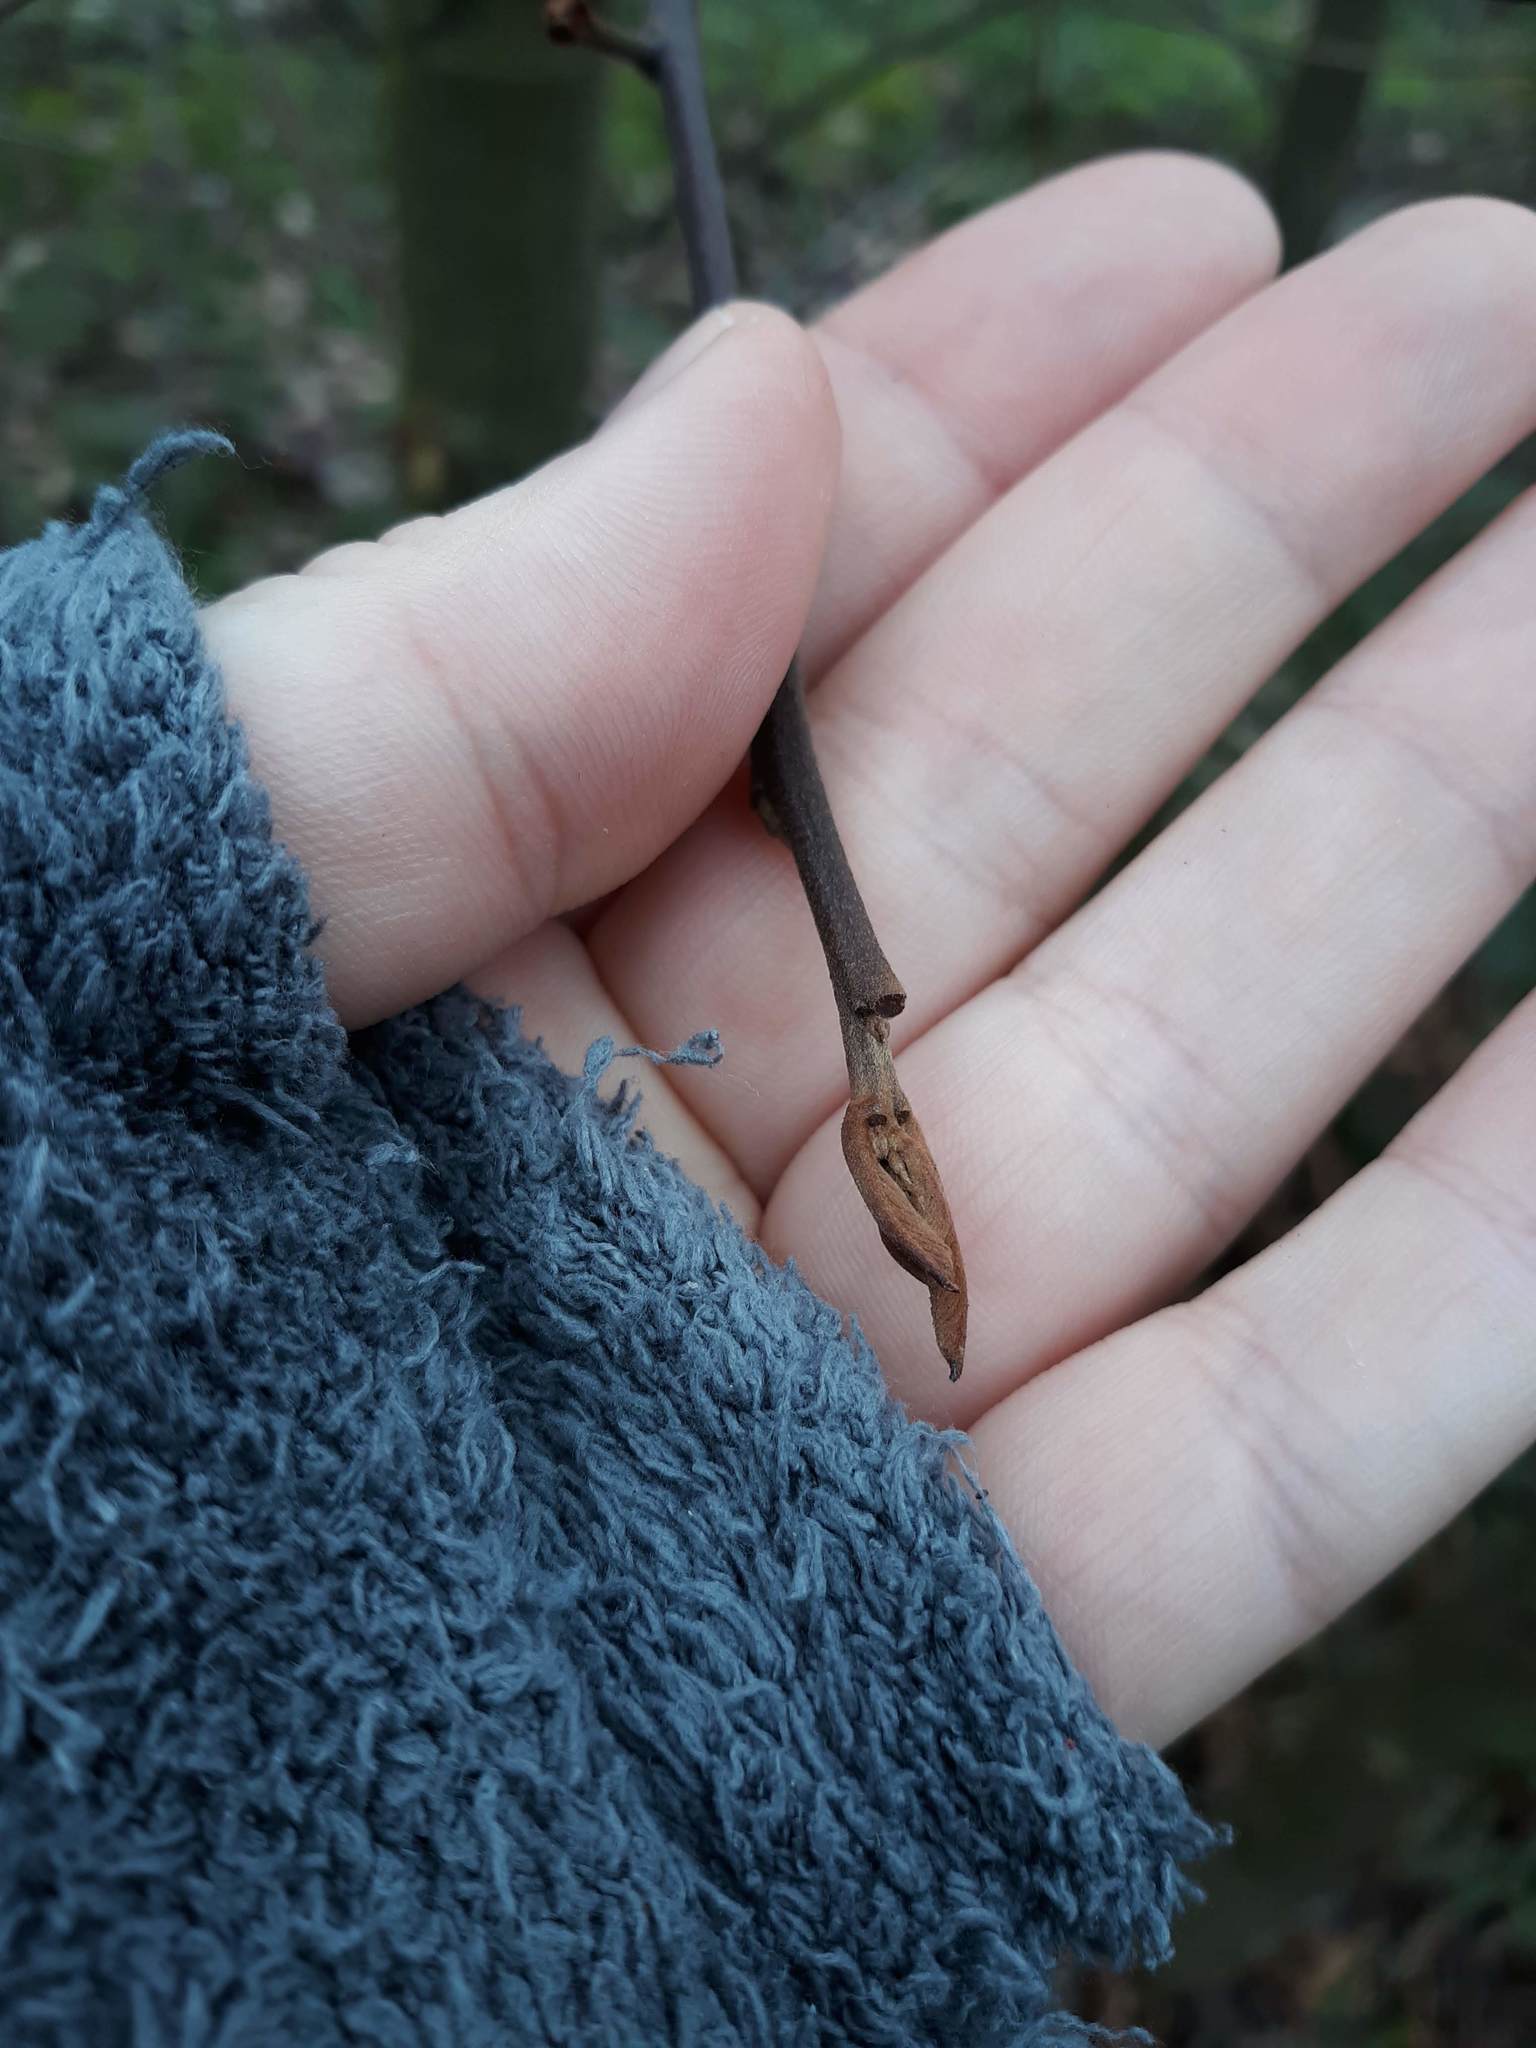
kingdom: Plantae
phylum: Tracheophyta
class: Magnoliopsida
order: Rosales
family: Rhamnaceae
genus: Frangula
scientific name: Frangula purshiana
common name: Cascara buckthorn
